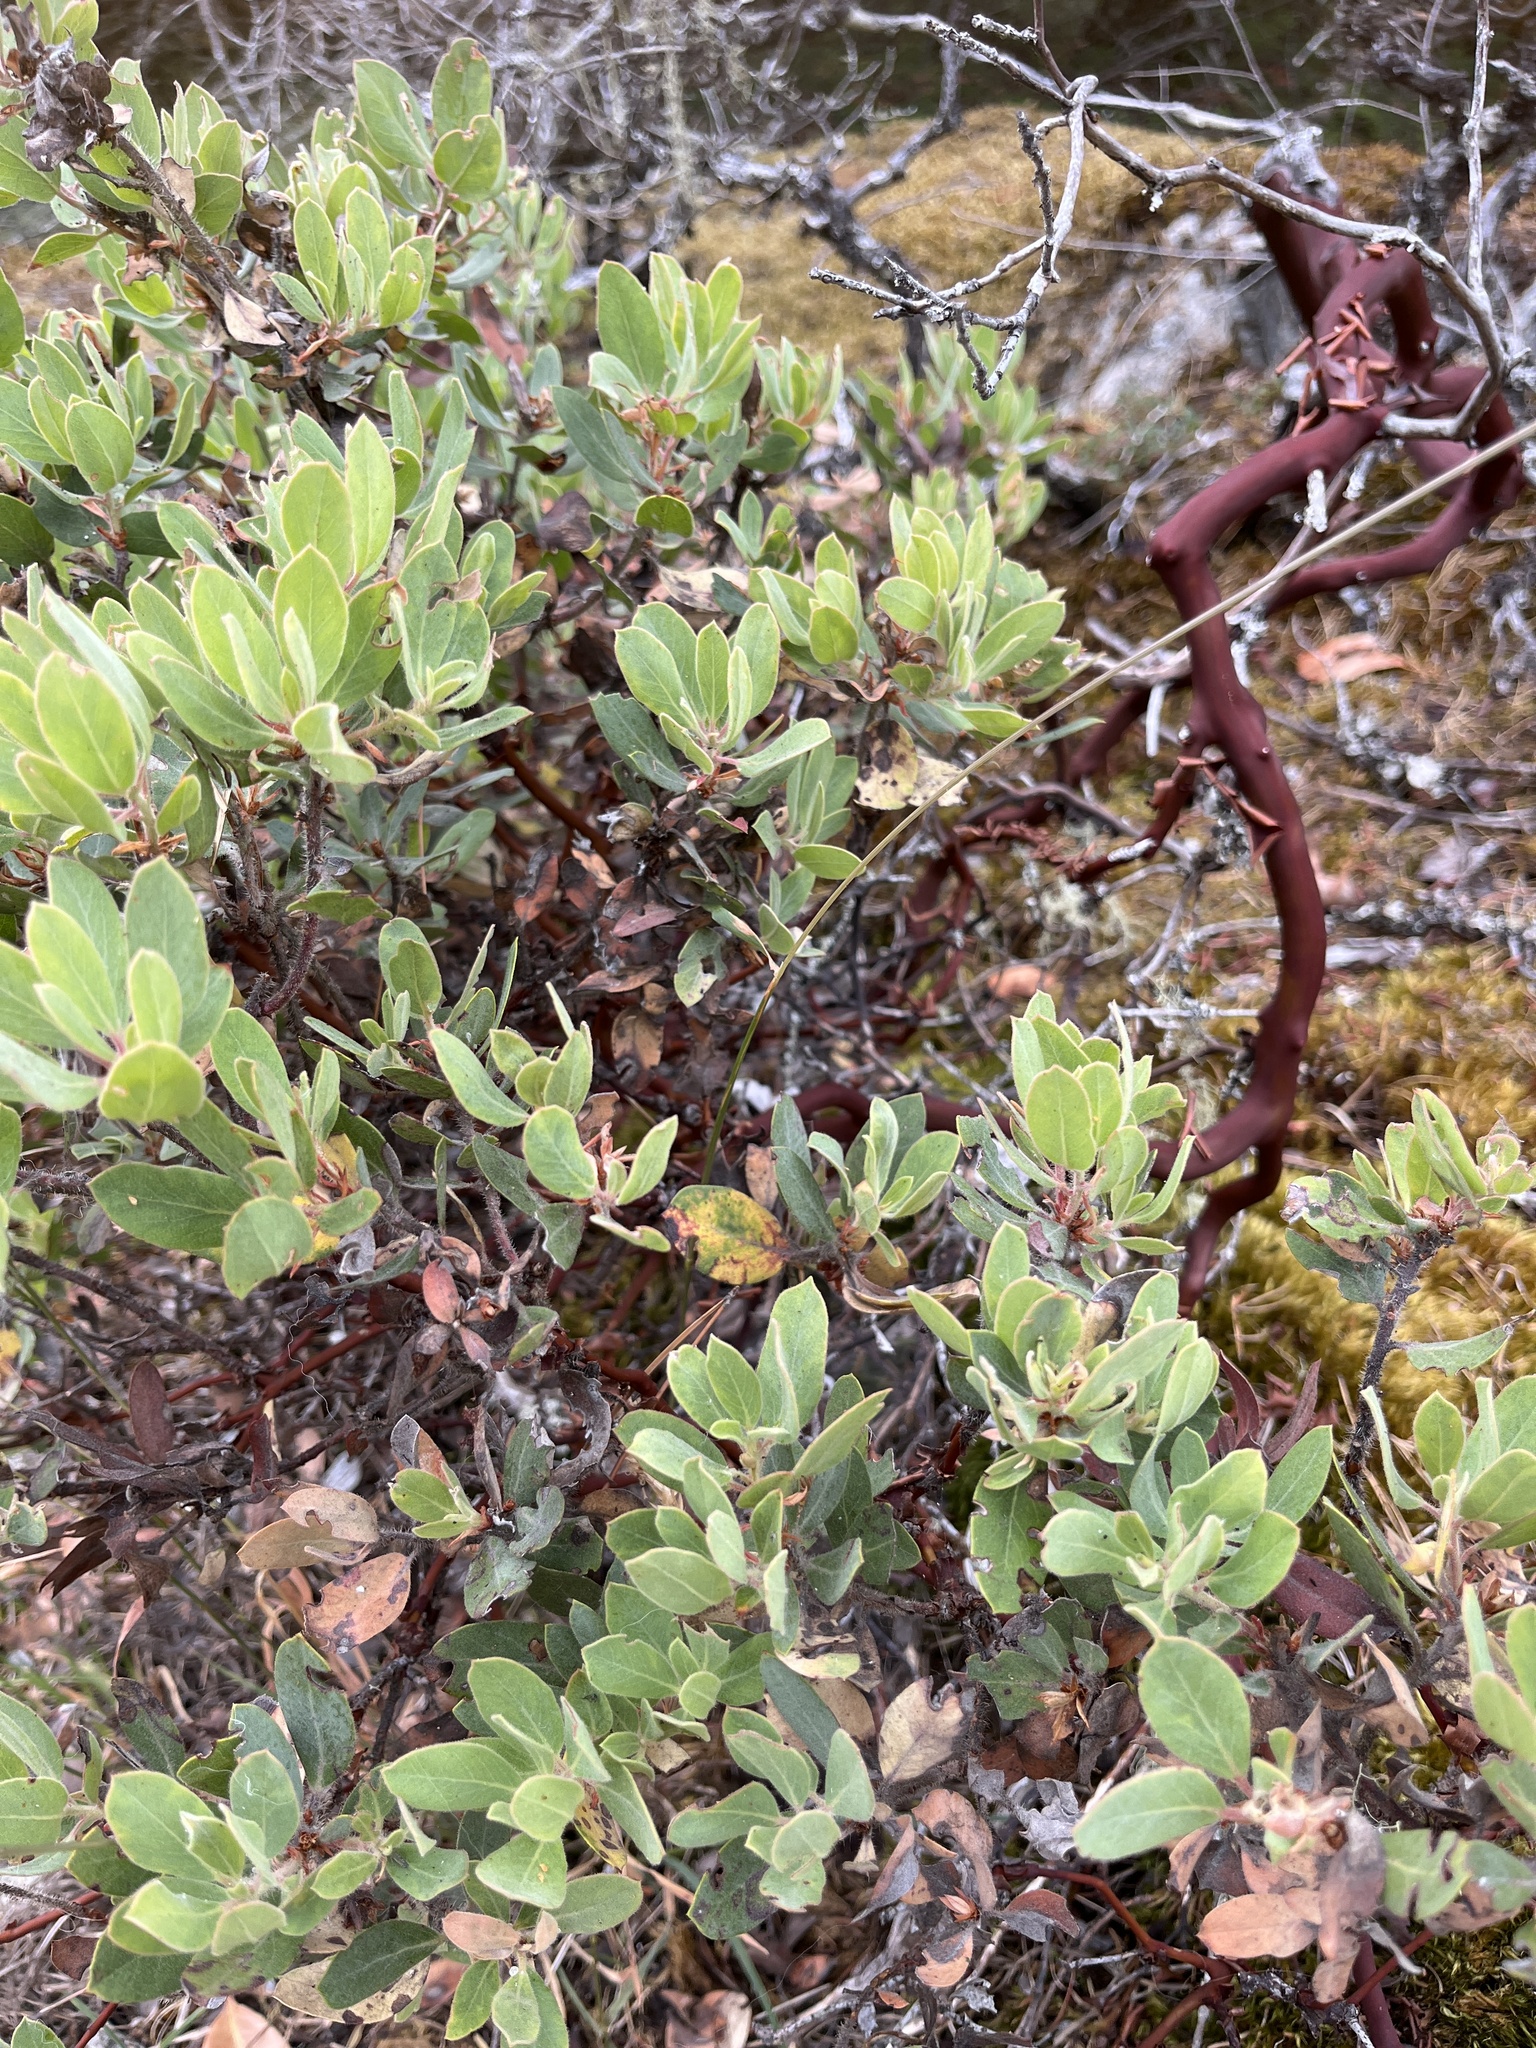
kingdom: Plantae
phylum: Tracheophyta
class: Magnoliopsida
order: Ericales
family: Ericaceae
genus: Arctostaphylos
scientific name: Arctostaphylos columbiana
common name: Bristly bearberry
